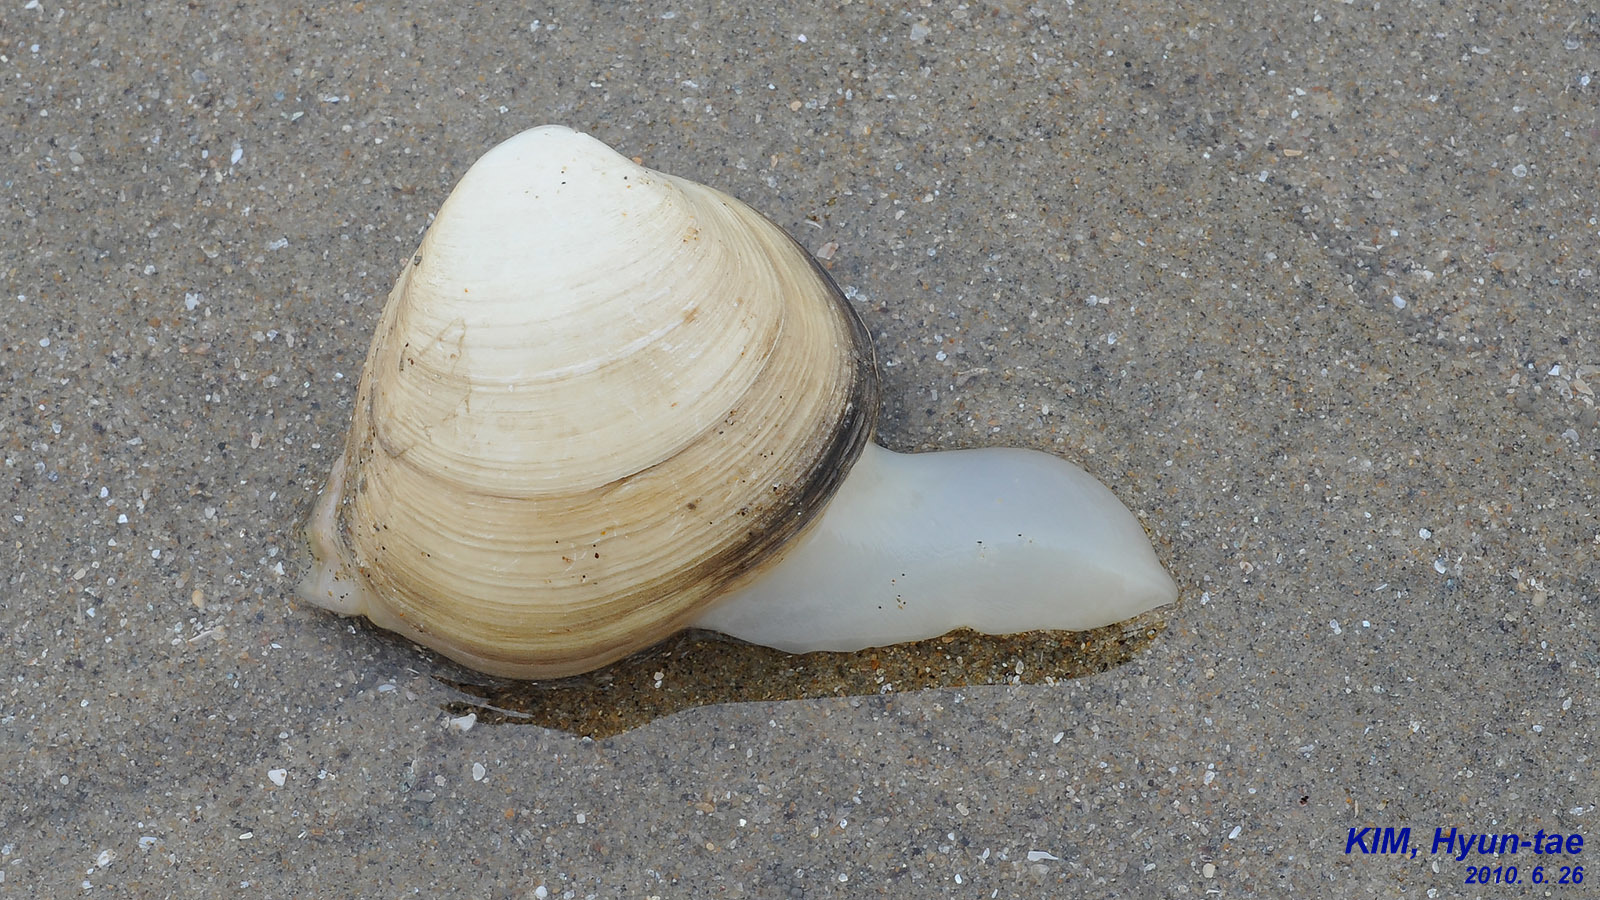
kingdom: Animalia
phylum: Mollusca
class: Bivalvia
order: Venerida
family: Mactridae
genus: Mactra
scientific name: Mactra quadrangularis
